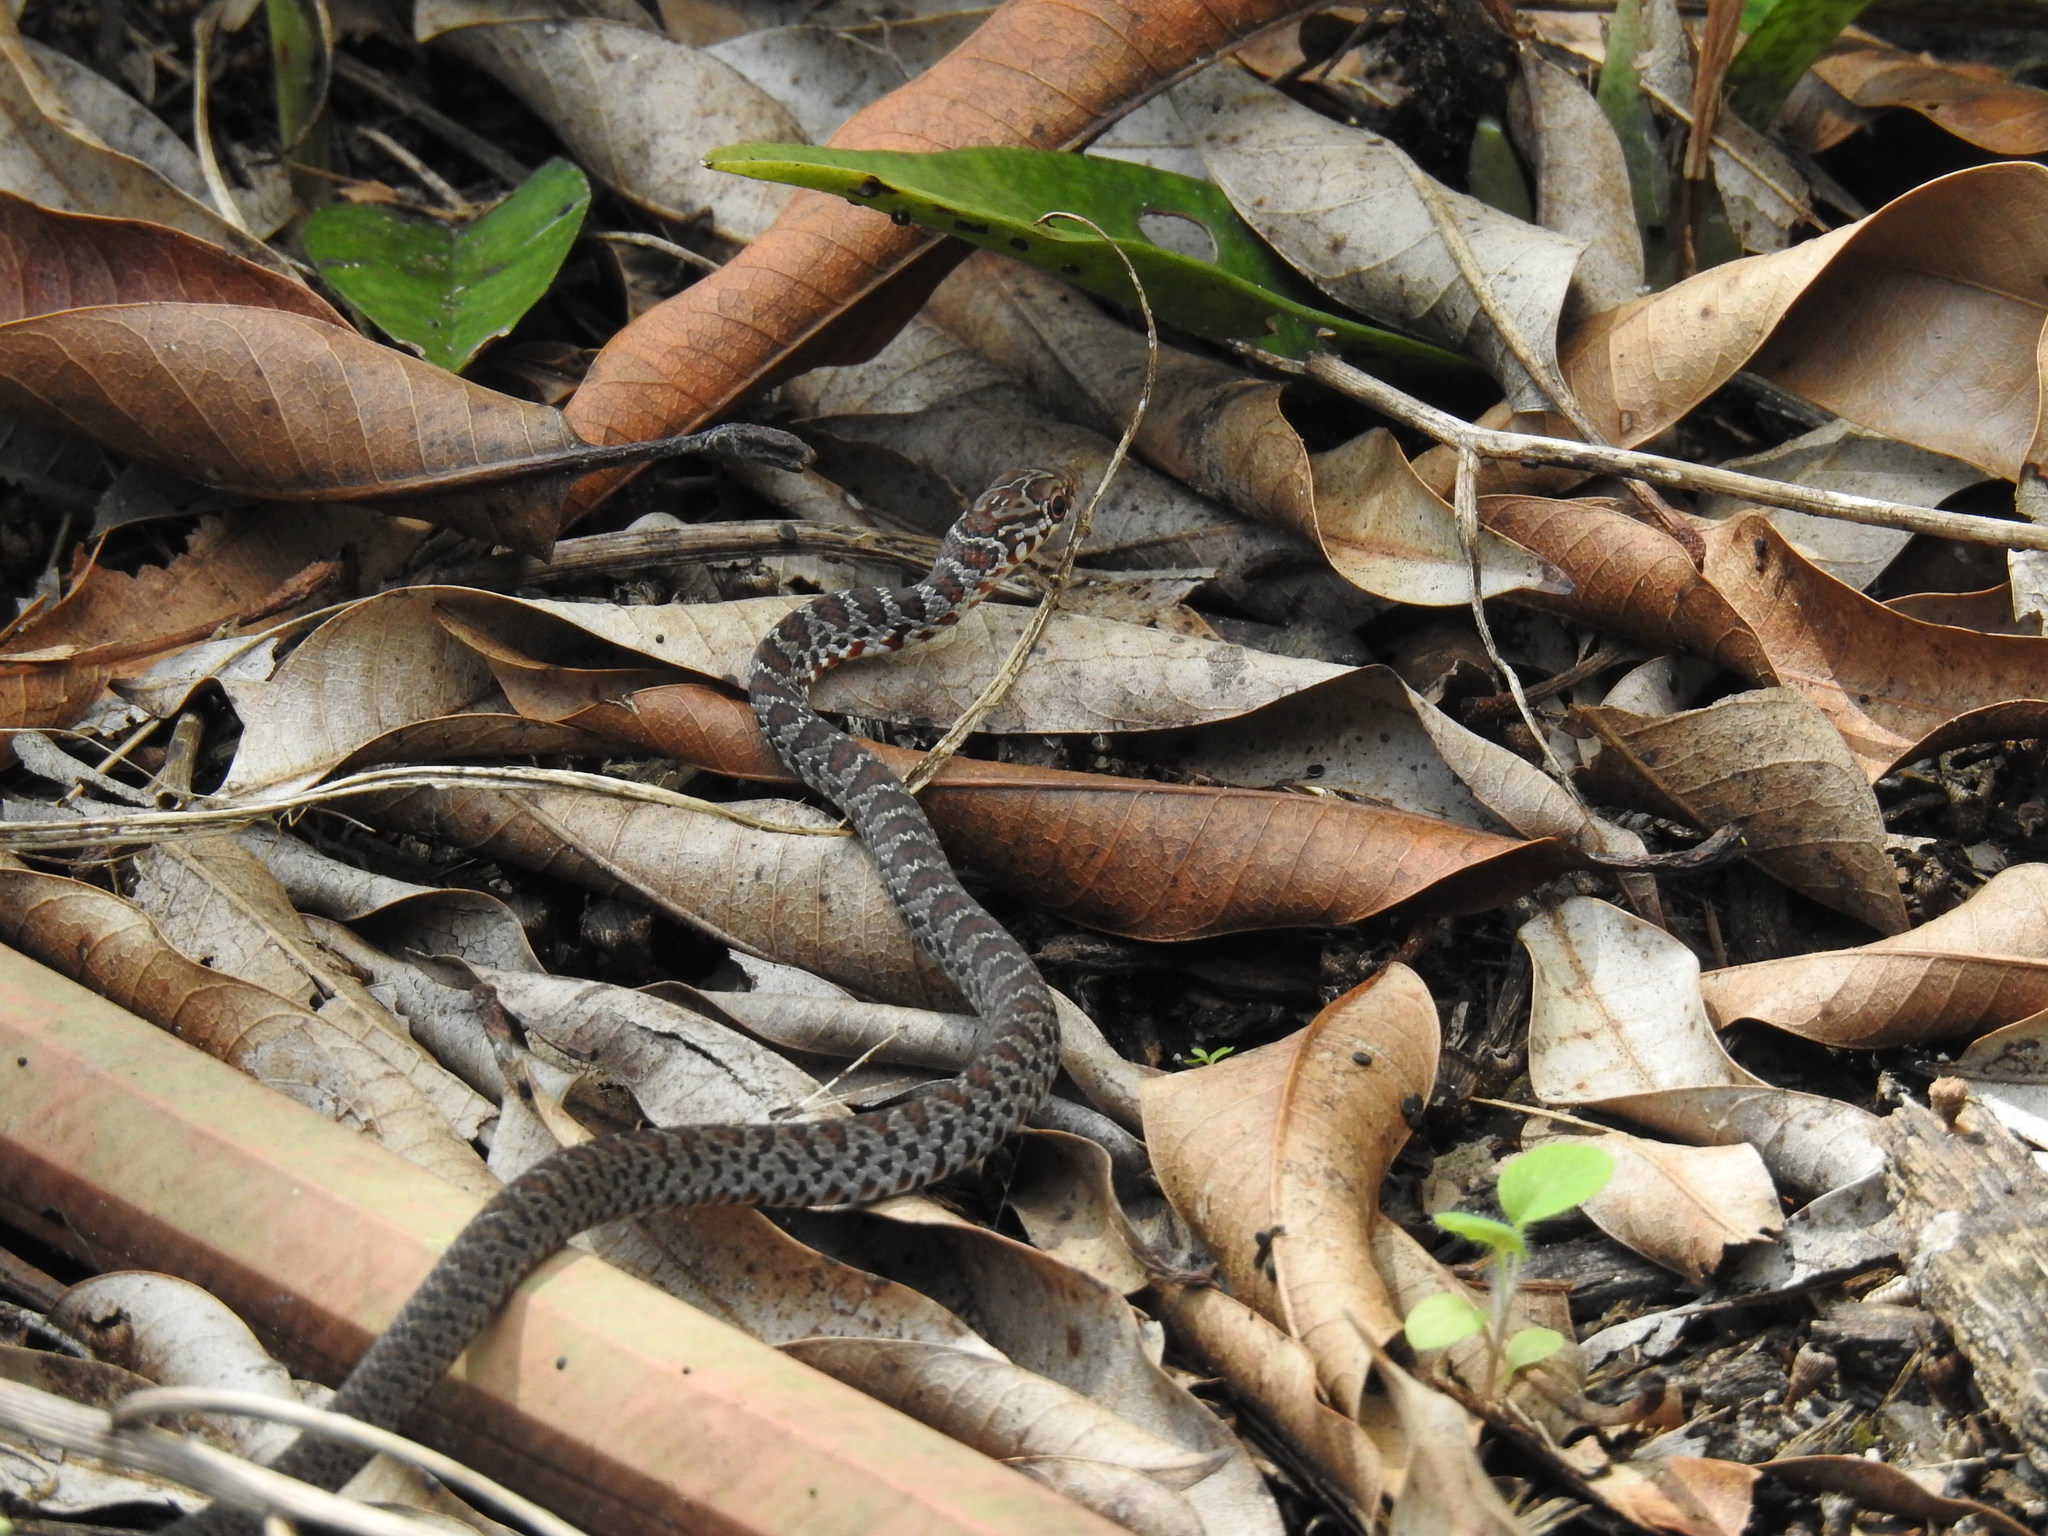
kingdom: Animalia
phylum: Chordata
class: Squamata
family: Colubridae
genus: Coluber
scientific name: Coluber constrictor
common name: Eastern racer
